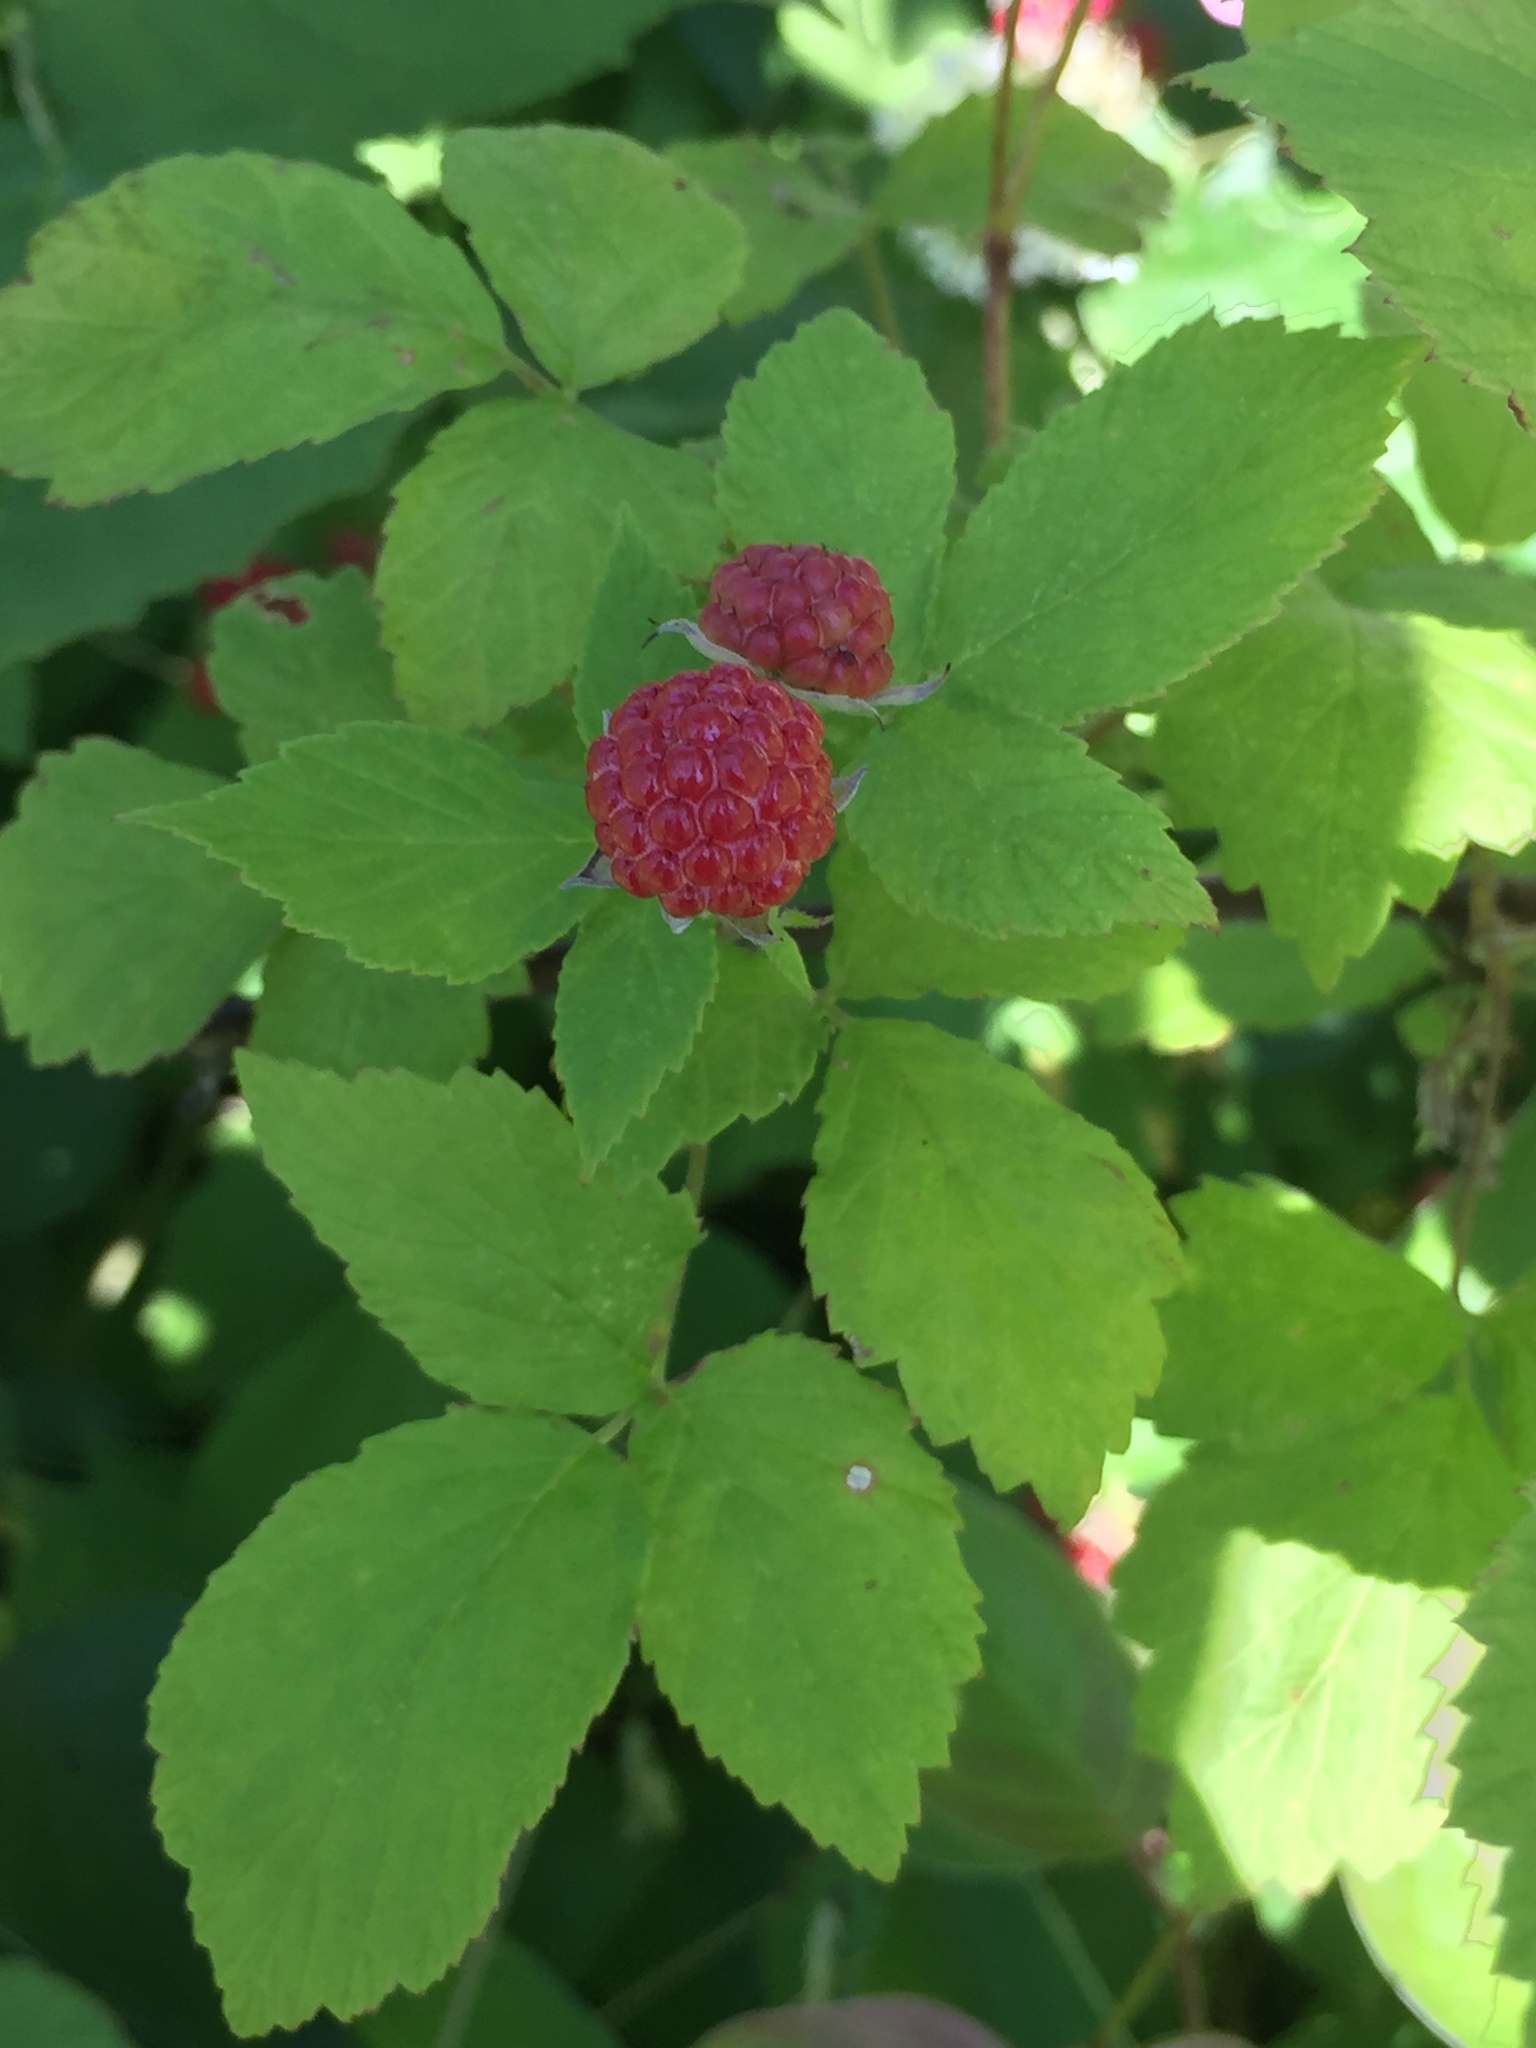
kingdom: Plantae
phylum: Tracheophyta
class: Magnoliopsida
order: Rosales
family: Rosaceae
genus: Rubus
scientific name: Rubus occidentalis
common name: Black raspberry
